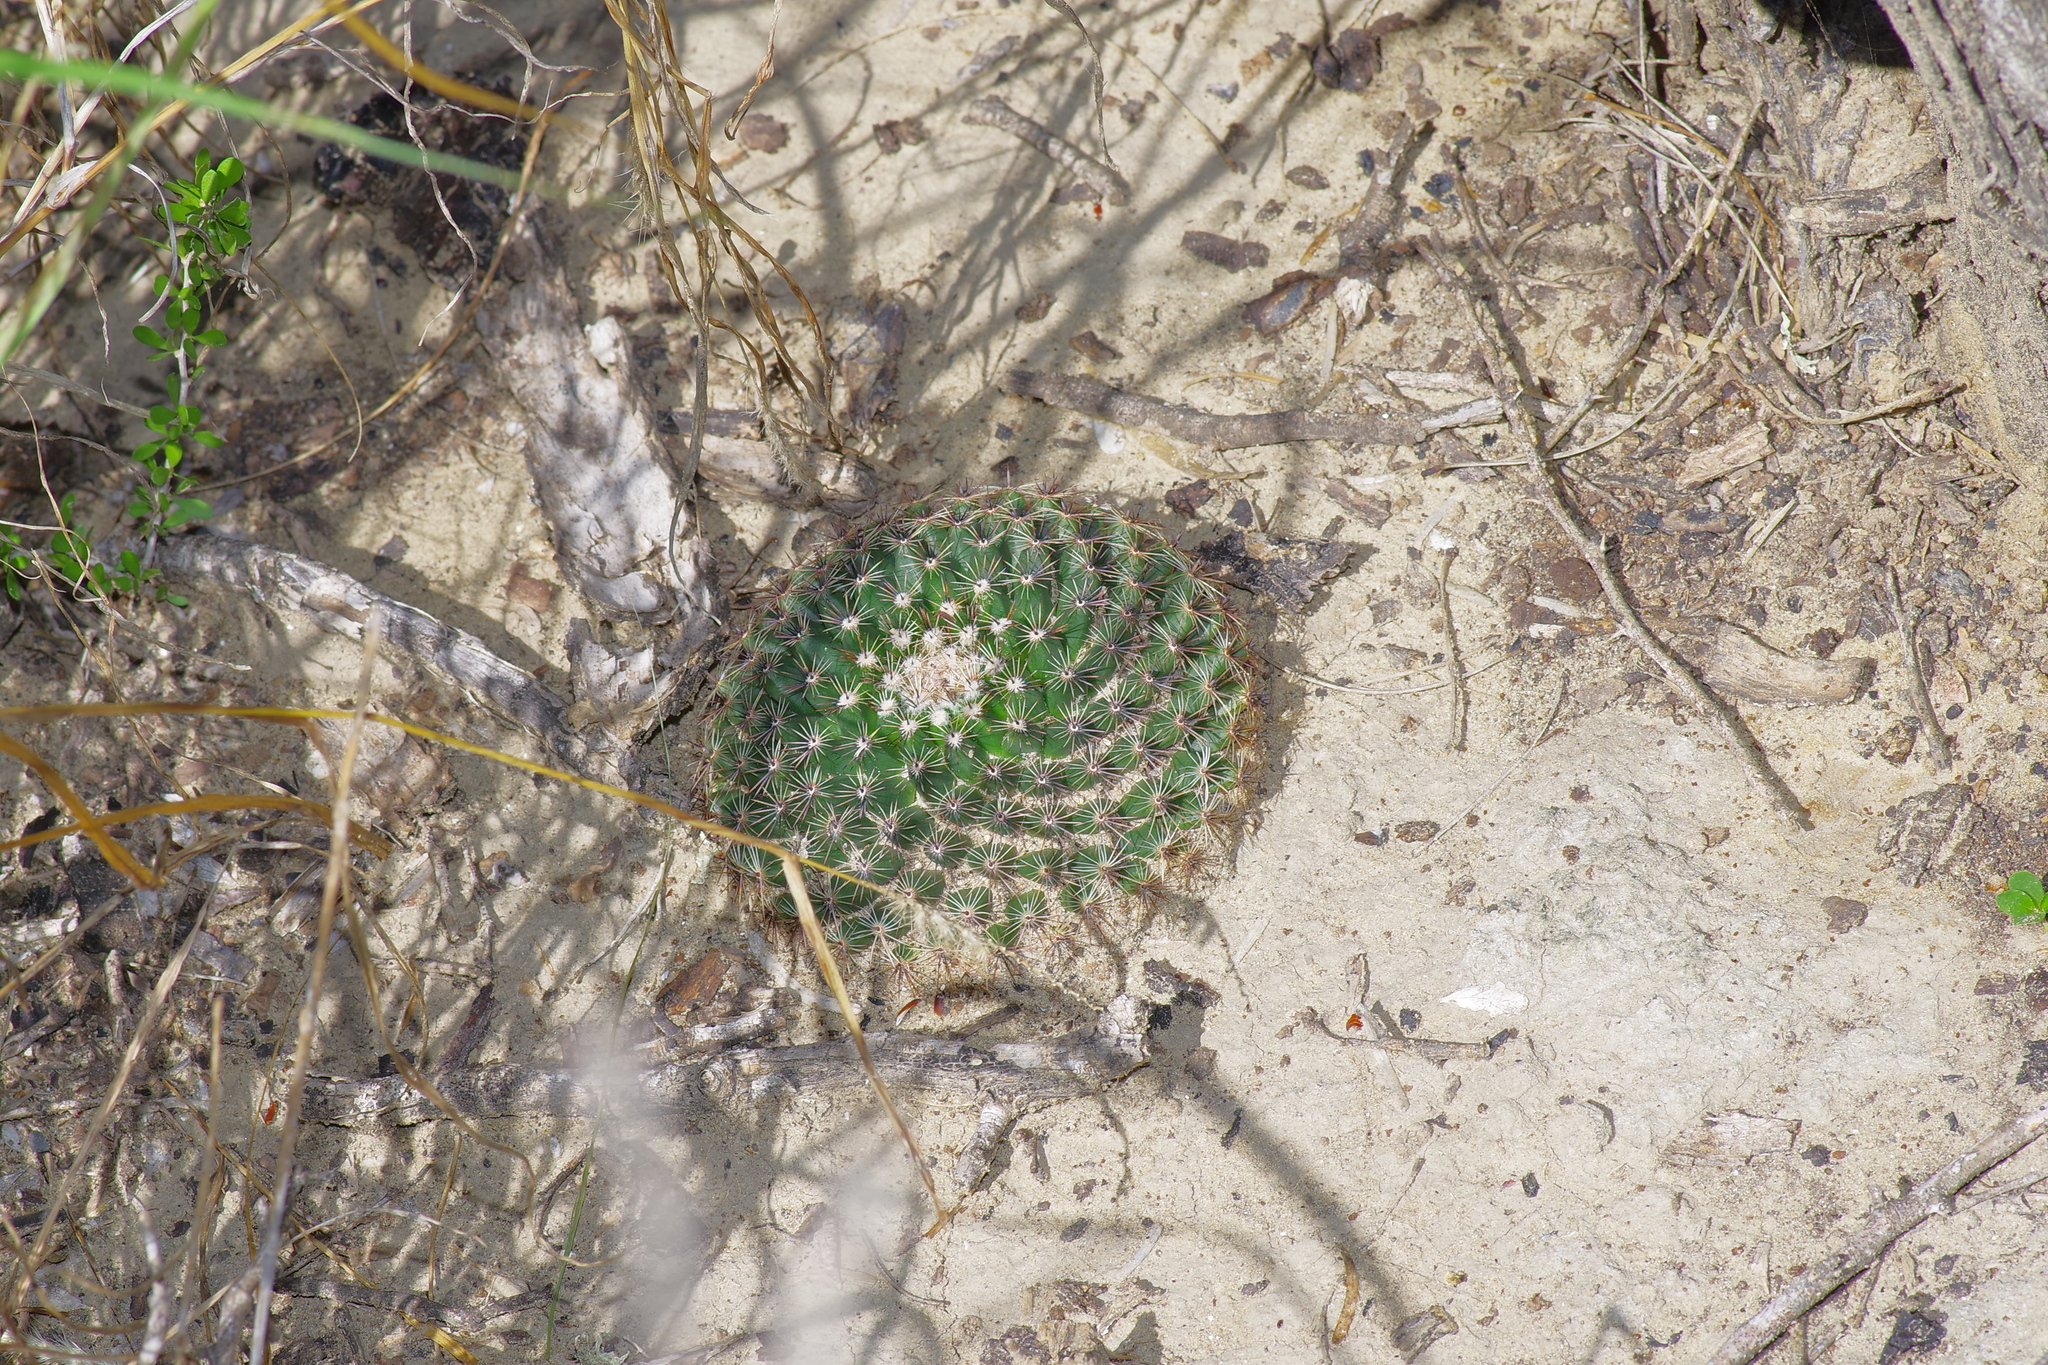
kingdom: Plantae
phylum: Tracheophyta
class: Magnoliopsida
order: Caryophyllales
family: Cactaceae
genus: Mammillaria
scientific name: Mammillaria heyderi
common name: Little nipple cactus
